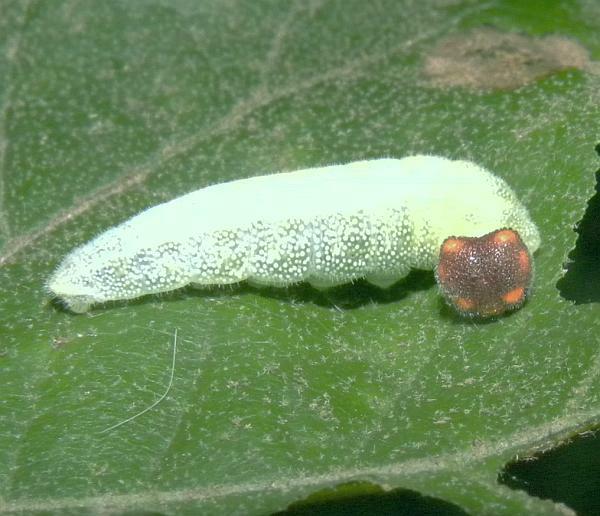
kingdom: Animalia
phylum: Arthropoda
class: Insecta
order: Lepidoptera
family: Hesperiidae
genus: Erynnis
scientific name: Erynnis juvenalis
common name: Juvenal's duskywing
